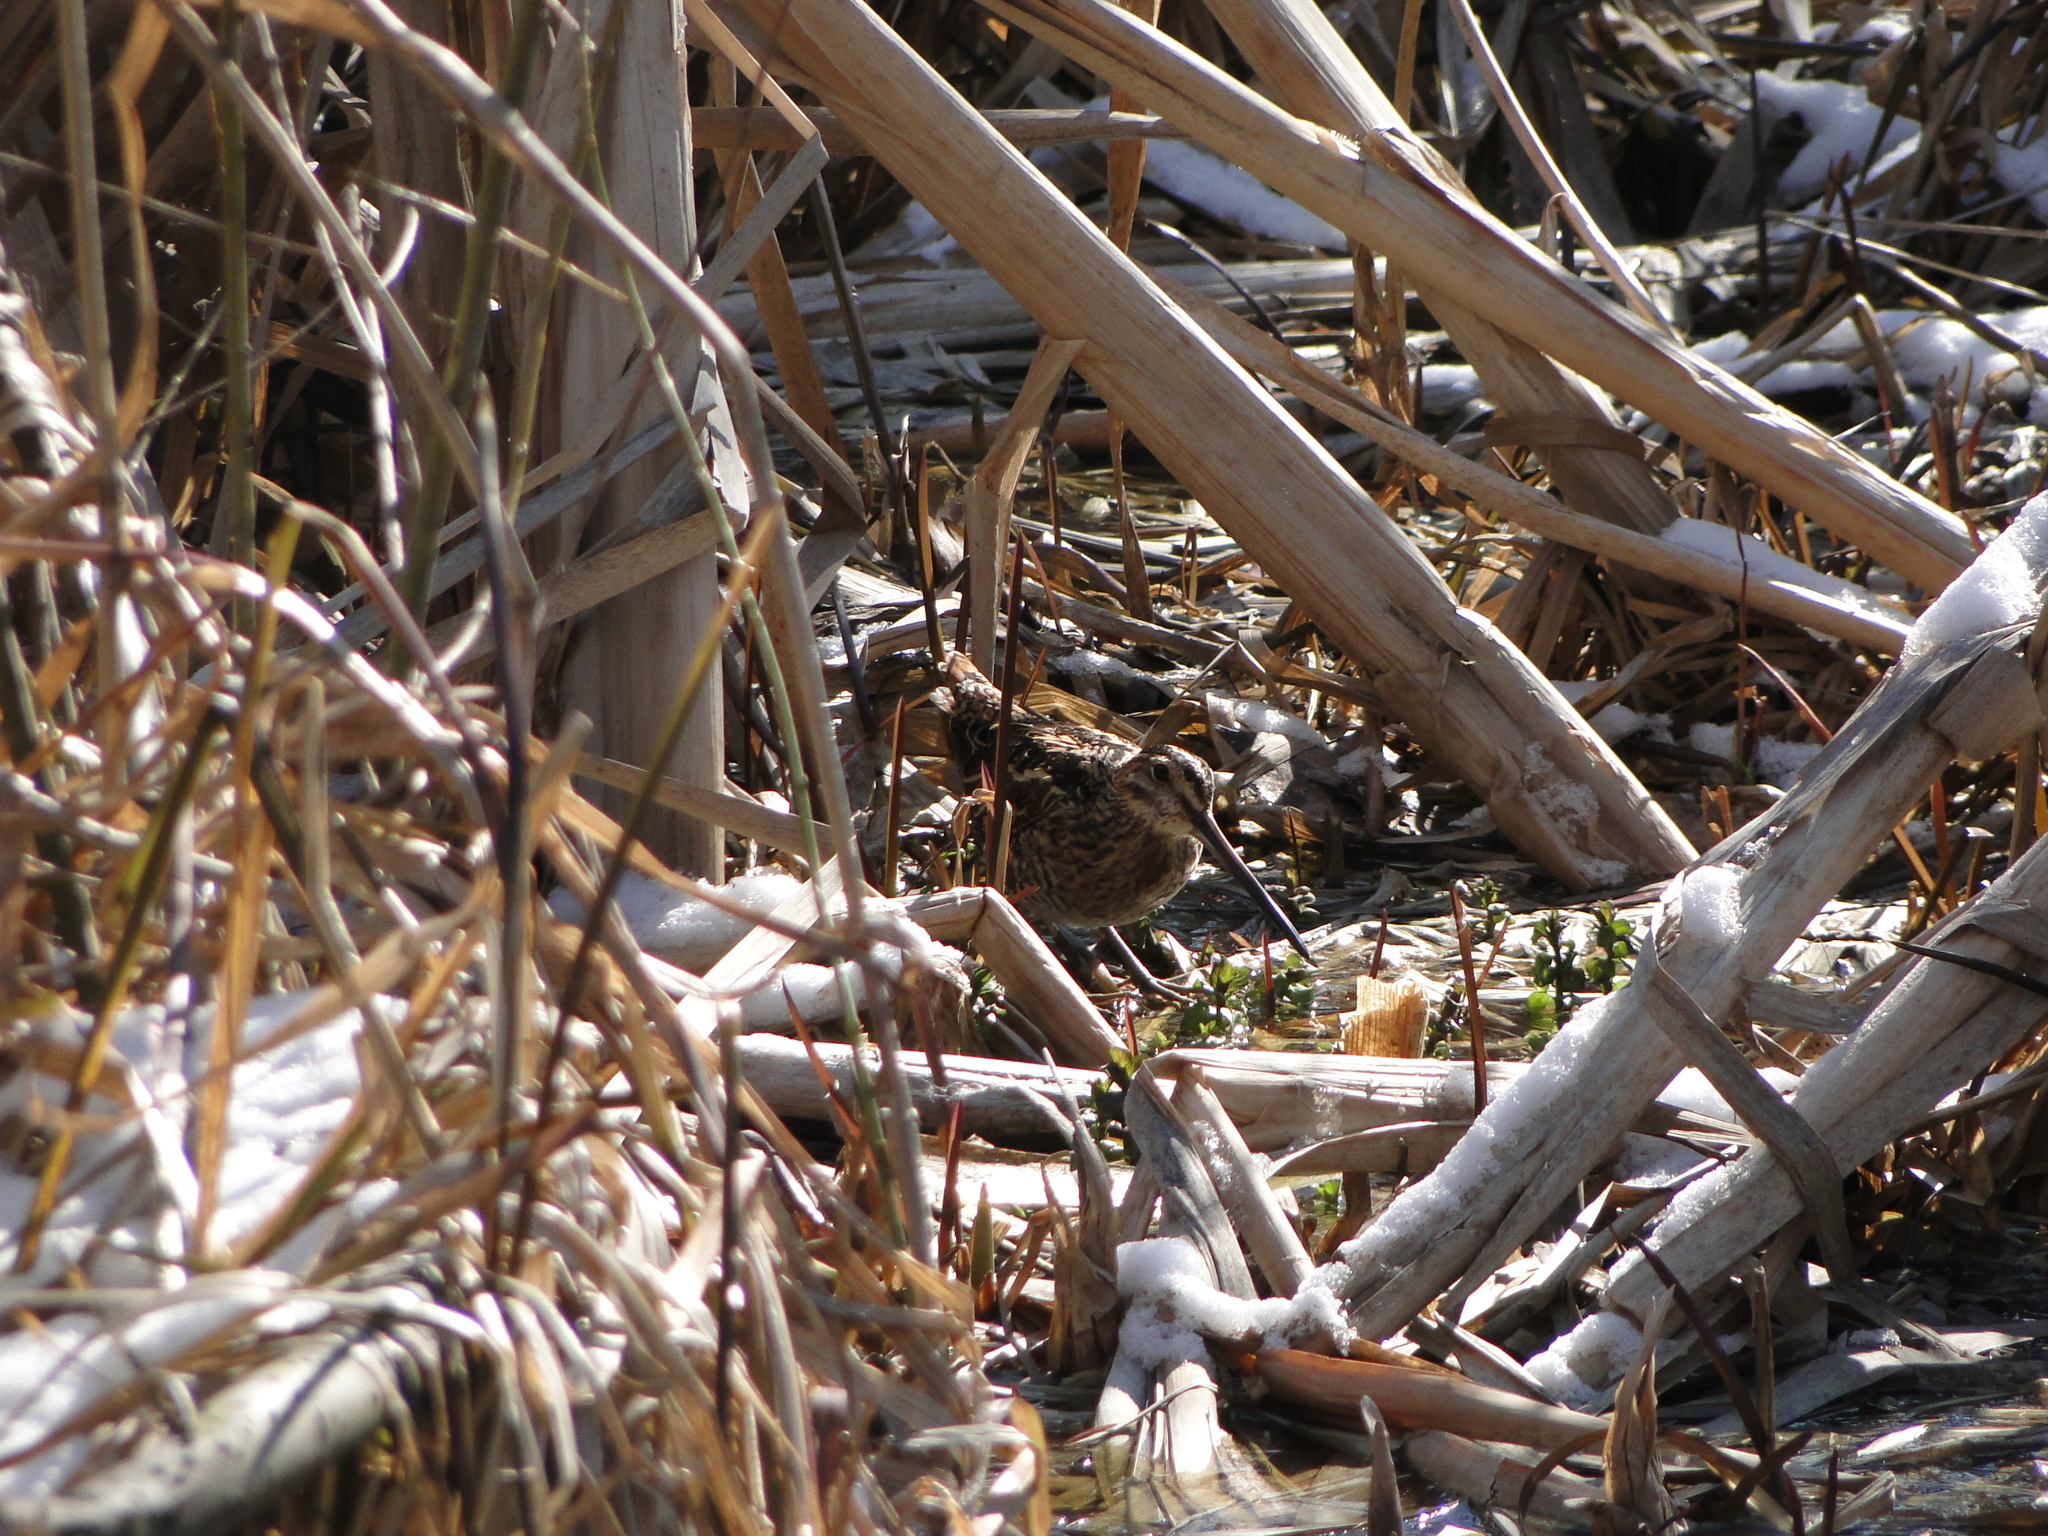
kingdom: Animalia
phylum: Chordata
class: Aves
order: Charadriiformes
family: Scolopacidae
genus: Gallinago
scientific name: Gallinago gallinago
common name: Common snipe
